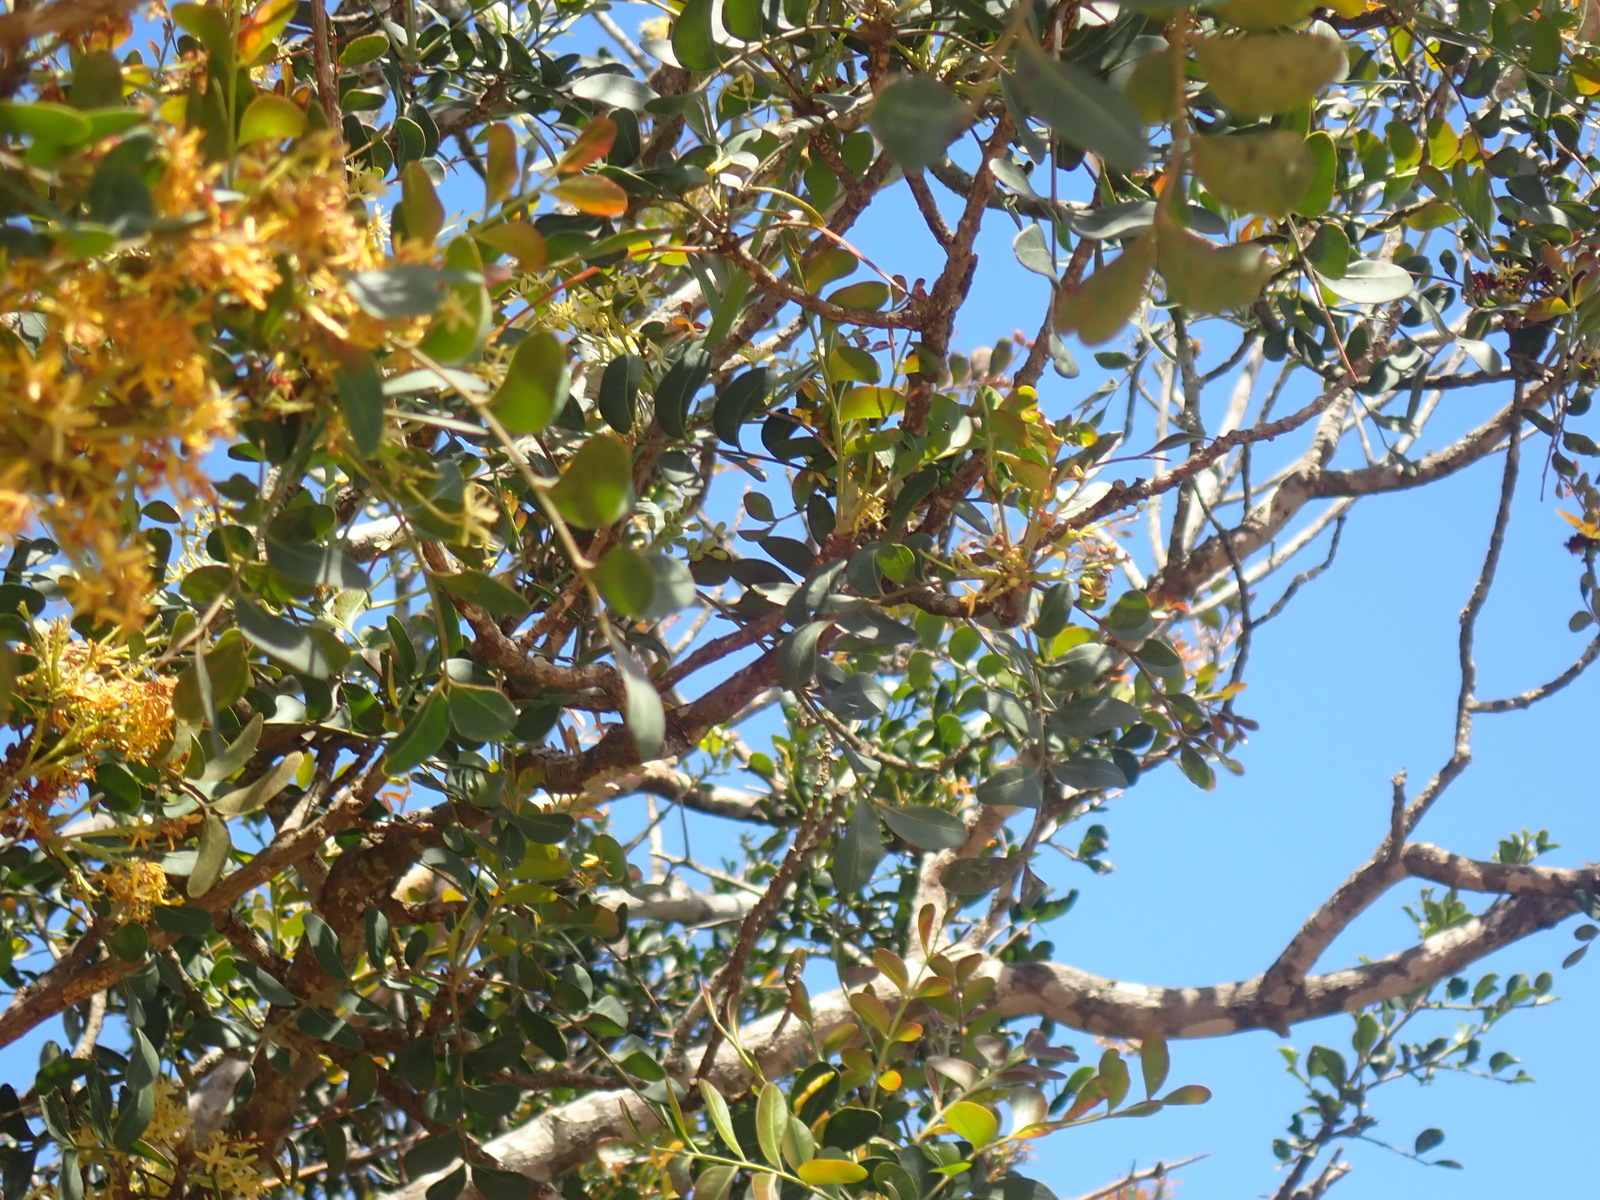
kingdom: Plantae
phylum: Tracheophyta
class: Magnoliopsida
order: Sapindales
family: Rutaceae
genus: Ptaeroxylon
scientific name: Ptaeroxylon obliquum
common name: Sneezewood
